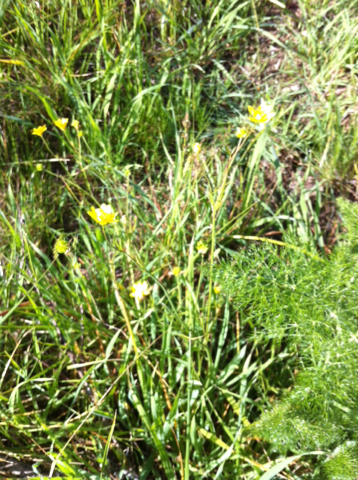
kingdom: Plantae
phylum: Tracheophyta
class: Magnoliopsida
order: Ranunculales
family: Ranunculaceae
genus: Ranunculus
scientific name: Ranunculus californicus
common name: California buttercup
